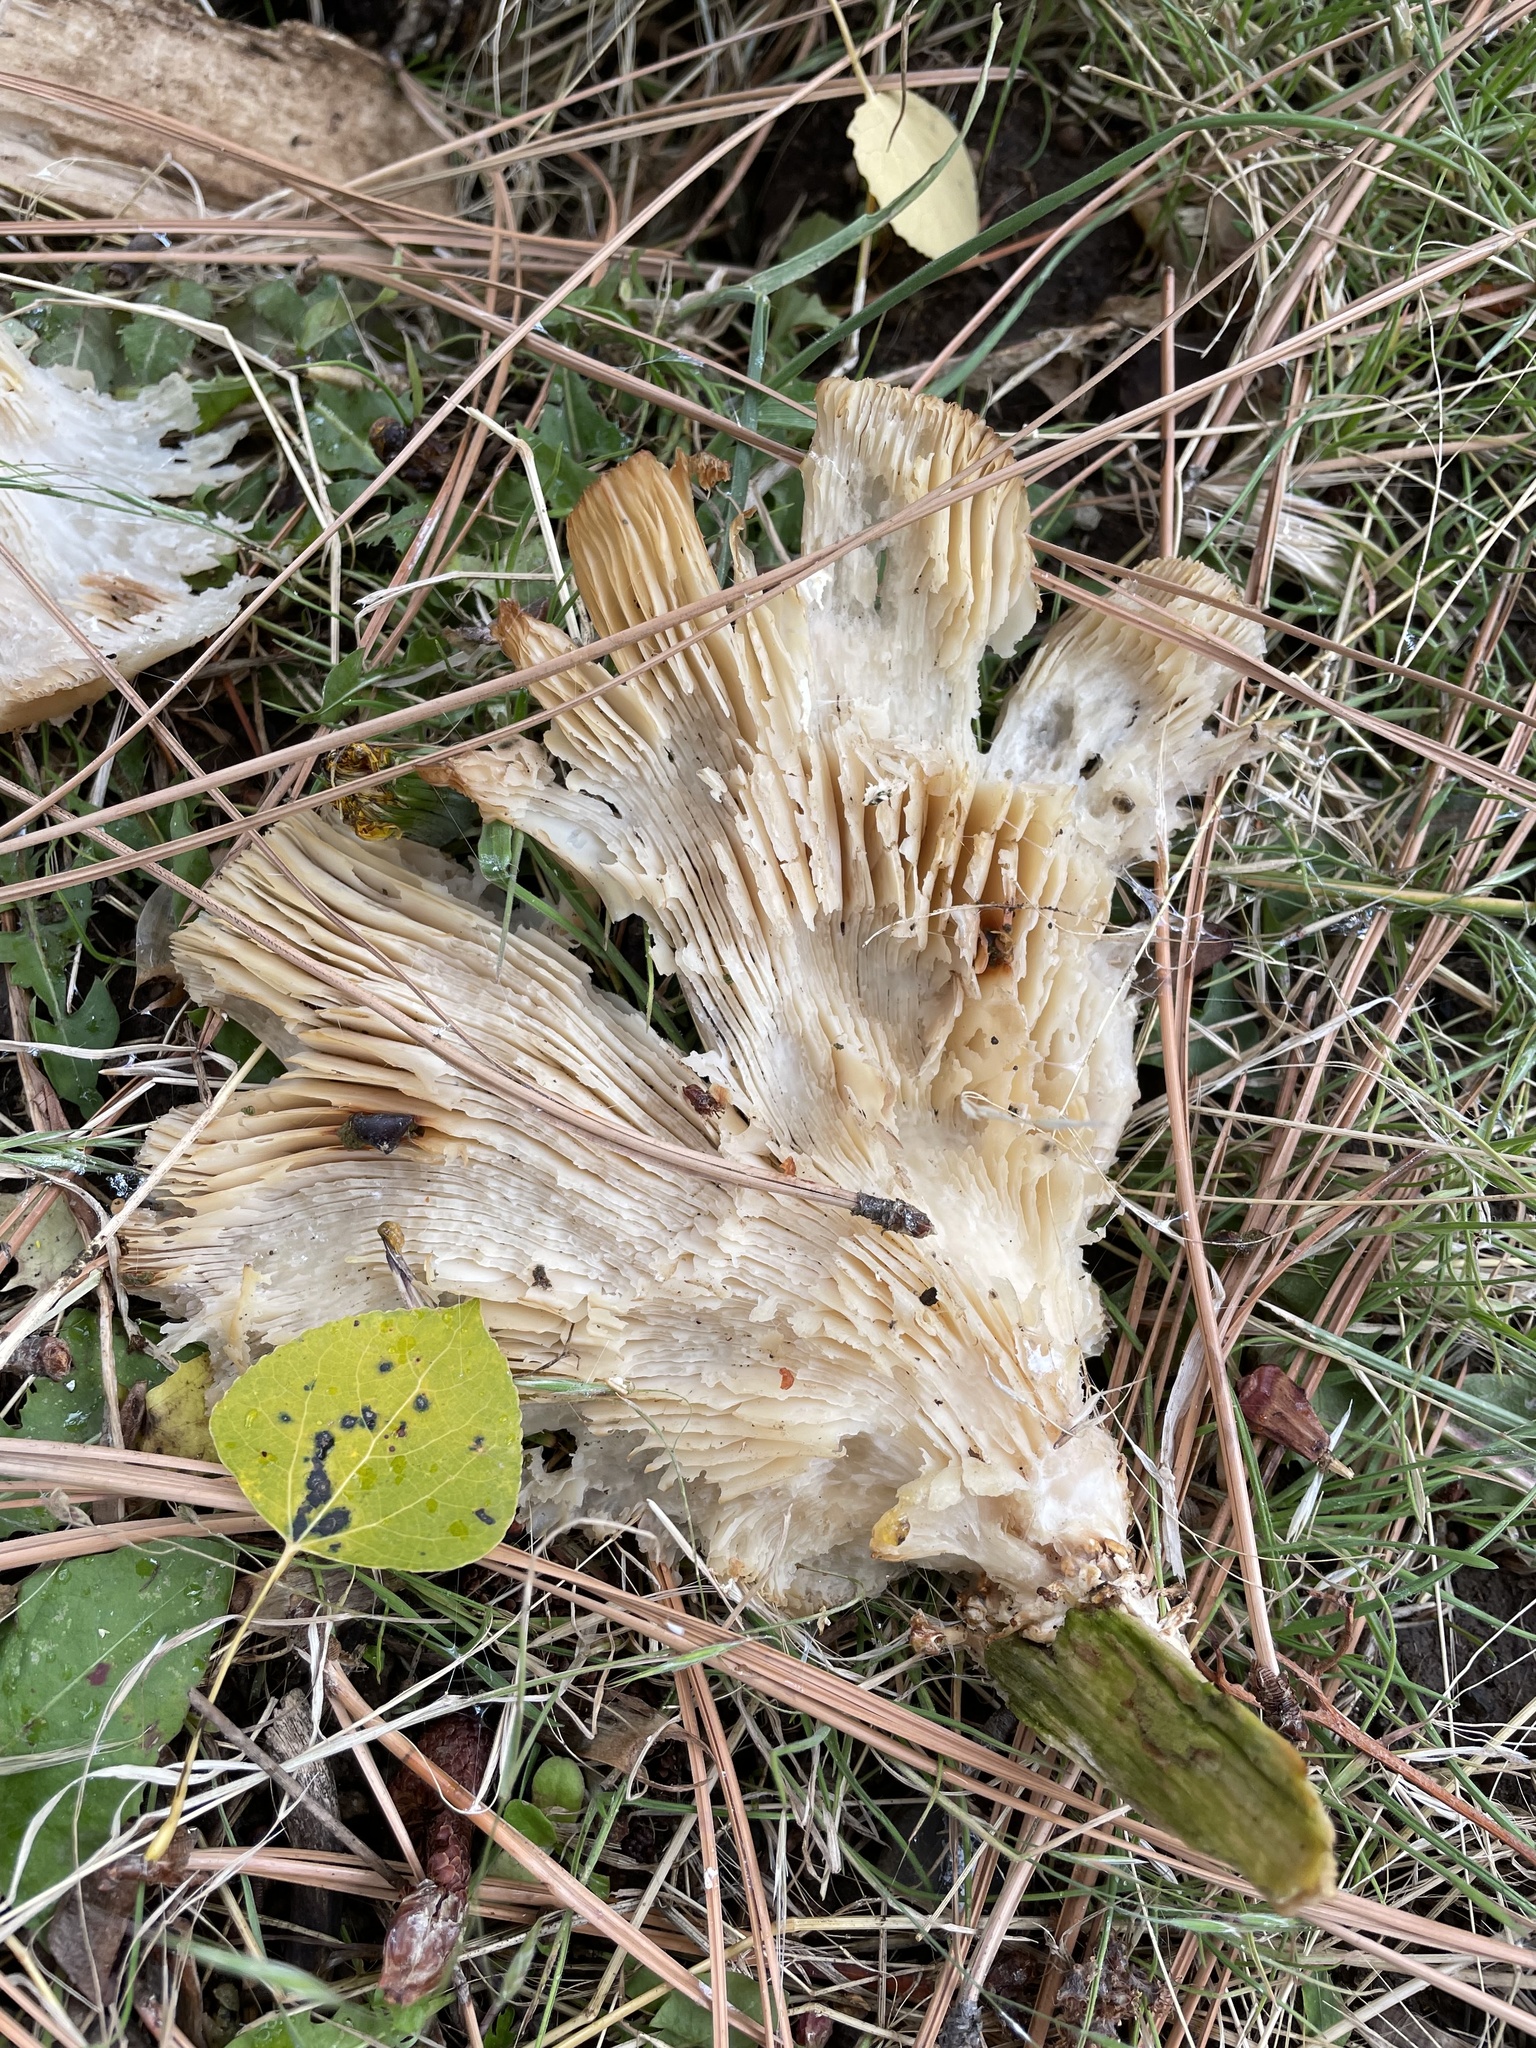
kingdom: Fungi
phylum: Basidiomycota
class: Agaricomycetes
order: Agaricales
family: Pleurotaceae
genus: Pleurotus
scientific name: Pleurotus ostreatus
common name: Oyster mushroom
